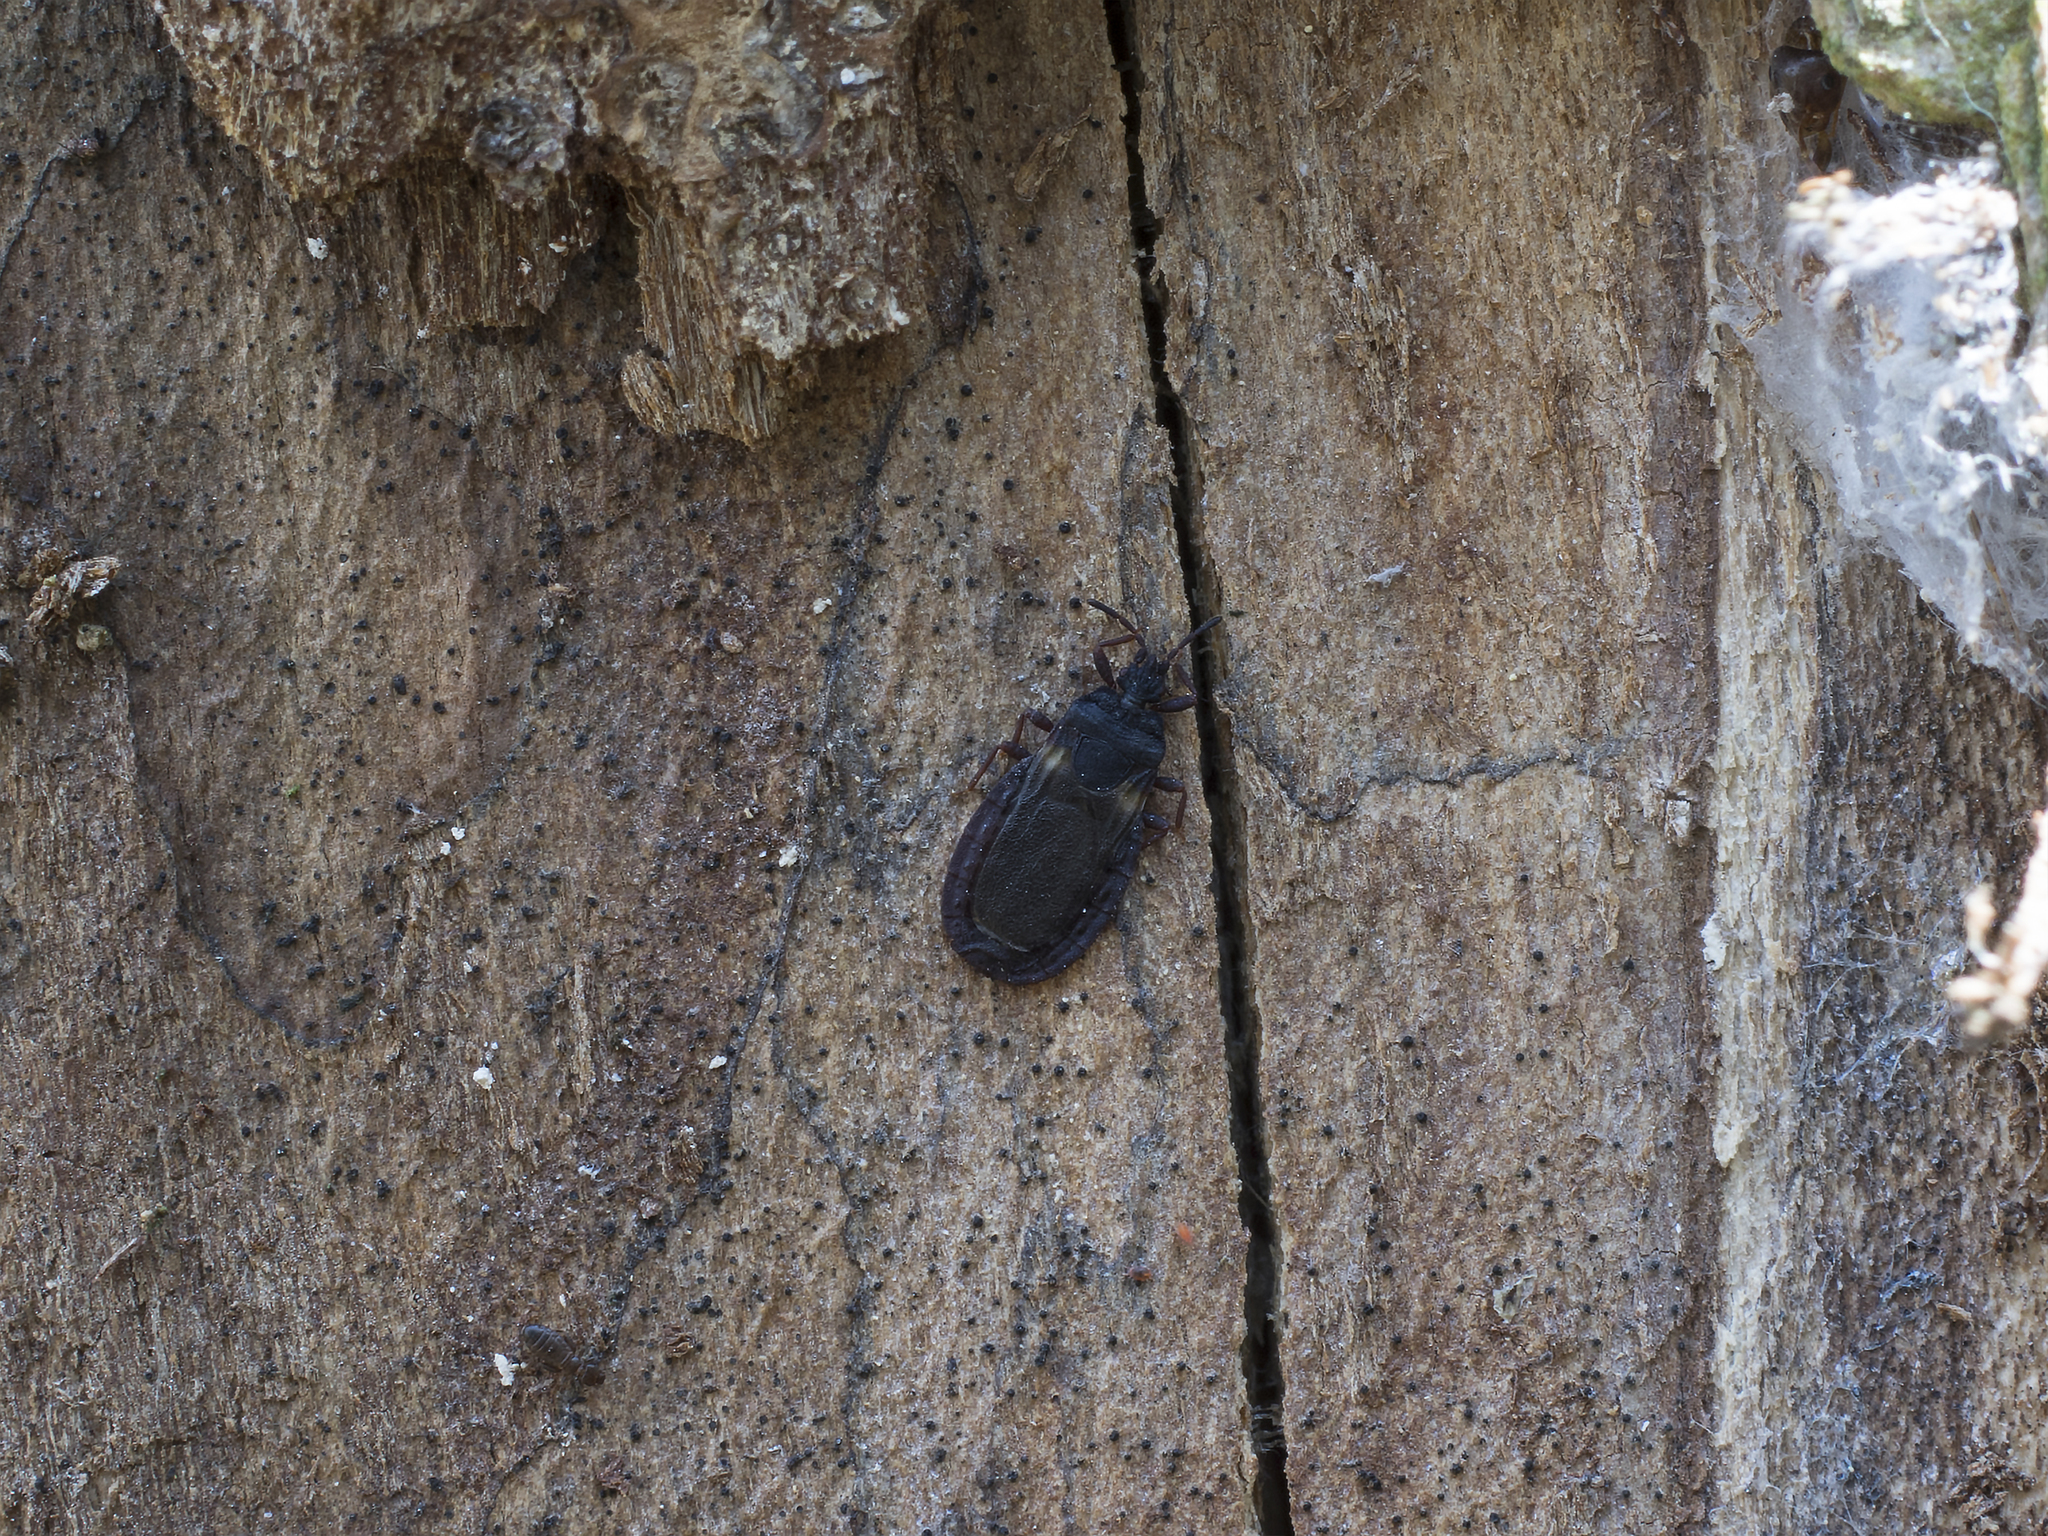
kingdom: Animalia
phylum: Arthropoda
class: Insecta
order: Hemiptera
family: Aradidae
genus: Aneurus
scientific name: Aneurus avenius
